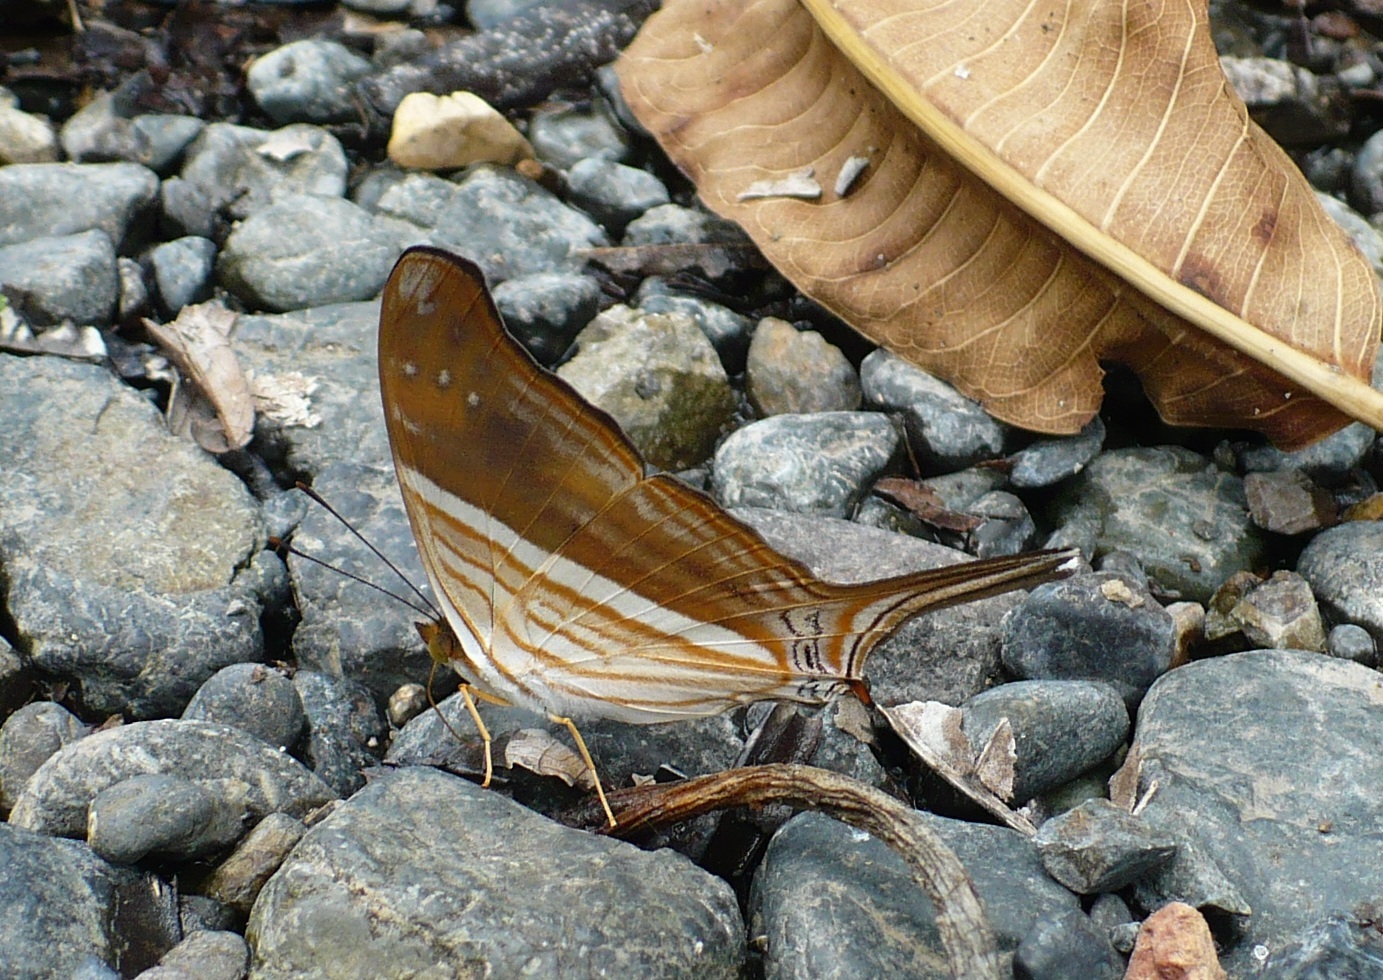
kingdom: Animalia
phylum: Arthropoda
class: Insecta
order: Lepidoptera
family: Nymphalidae
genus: Marpesia
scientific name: Marpesia chiron
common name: Many-banded daggerwing
